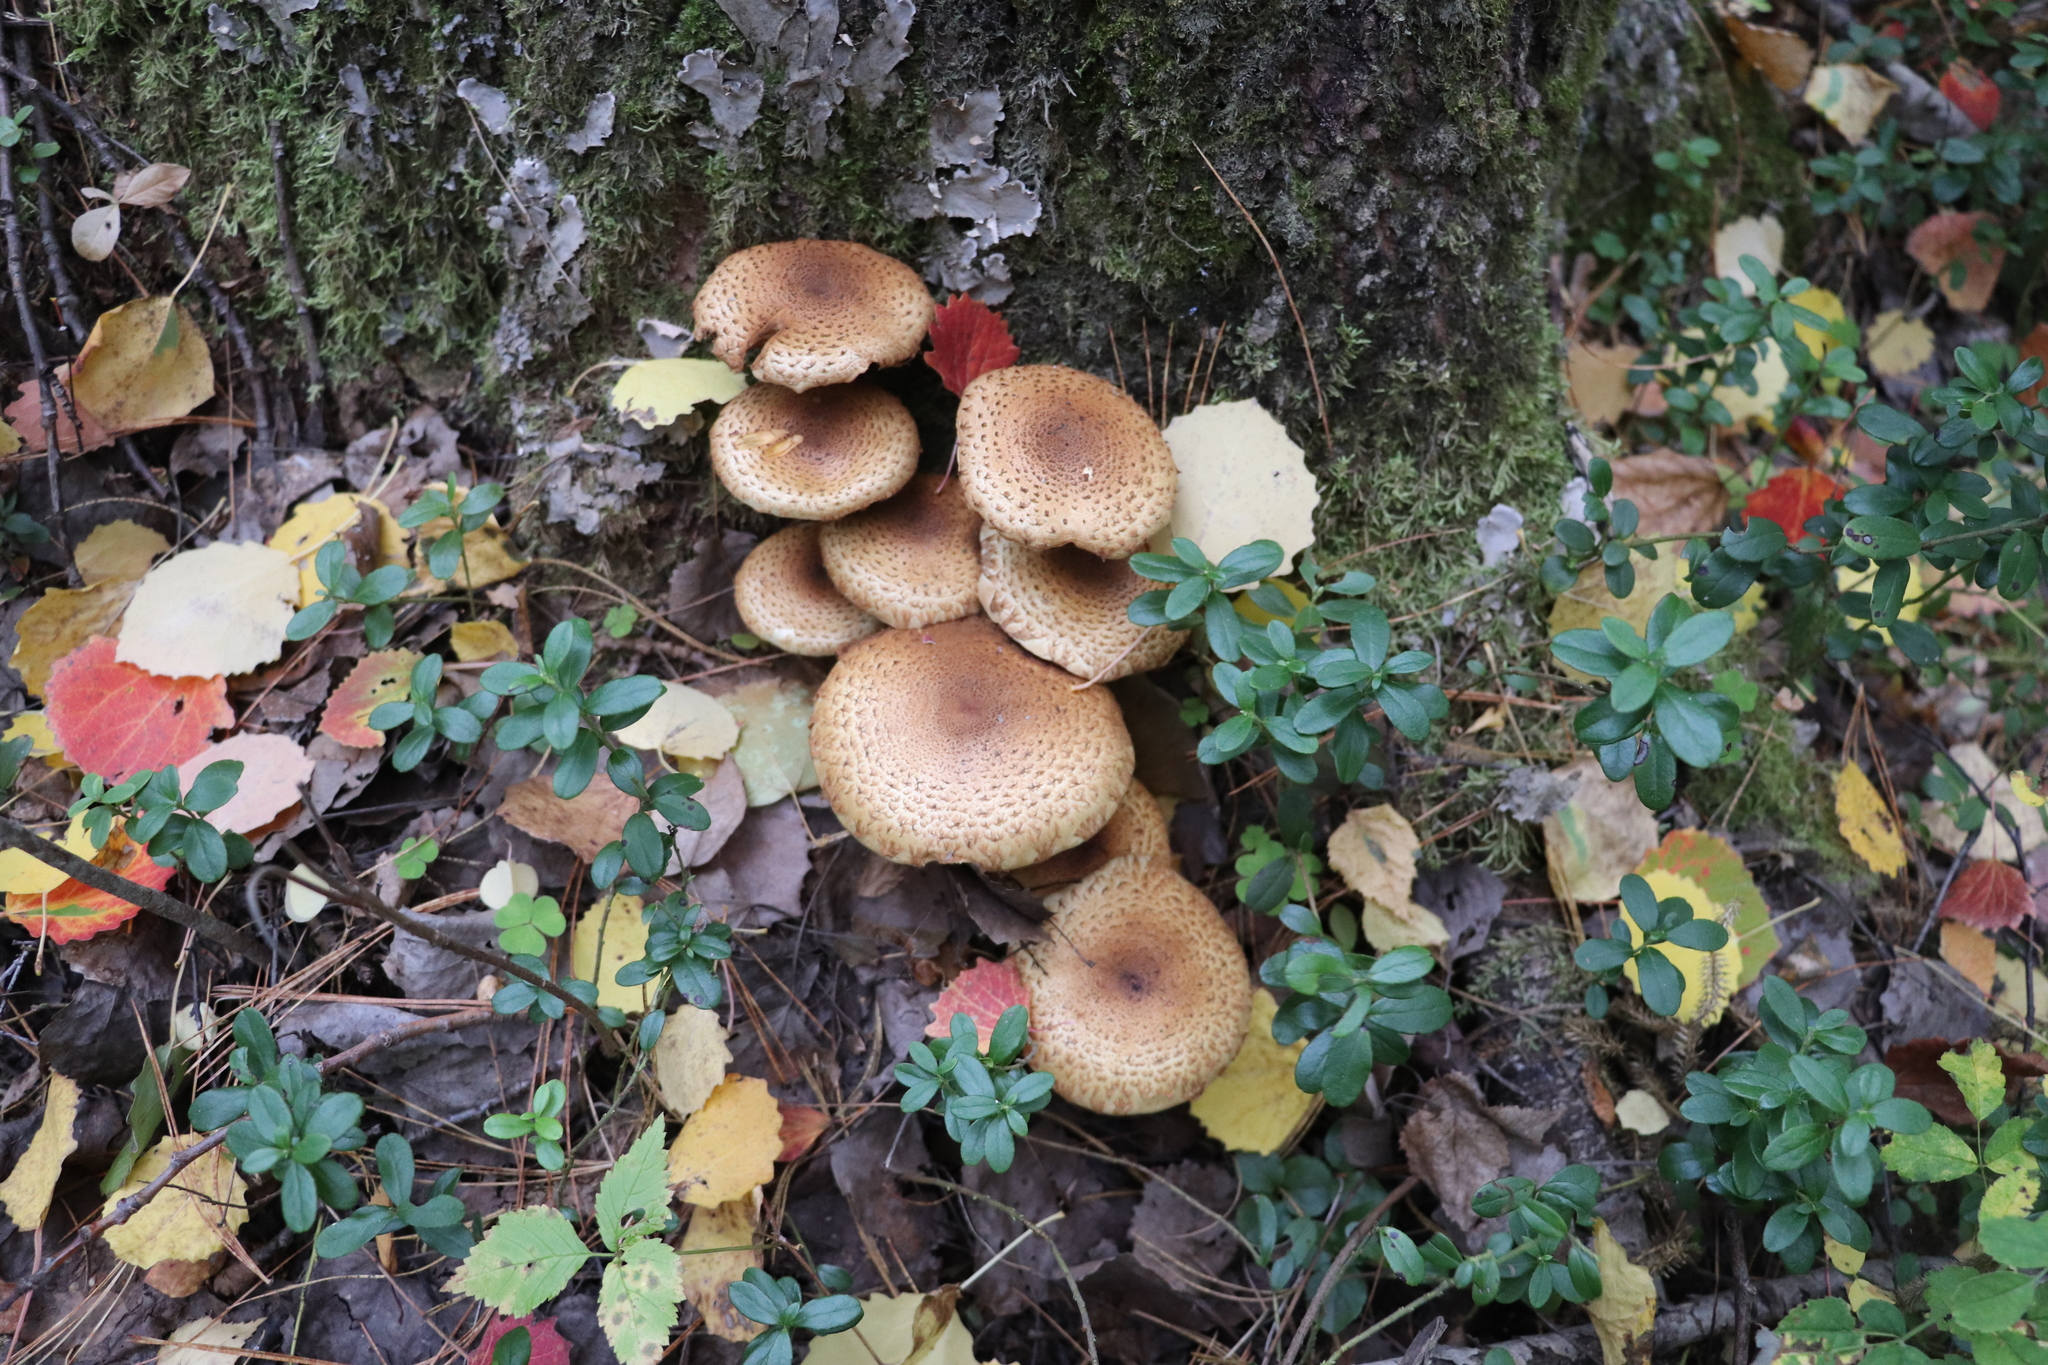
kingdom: Fungi
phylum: Basidiomycota
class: Agaricomycetes
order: Agaricales
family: Strophariaceae
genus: Pholiota
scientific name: Pholiota squarrosa
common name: Shaggy pholiota
